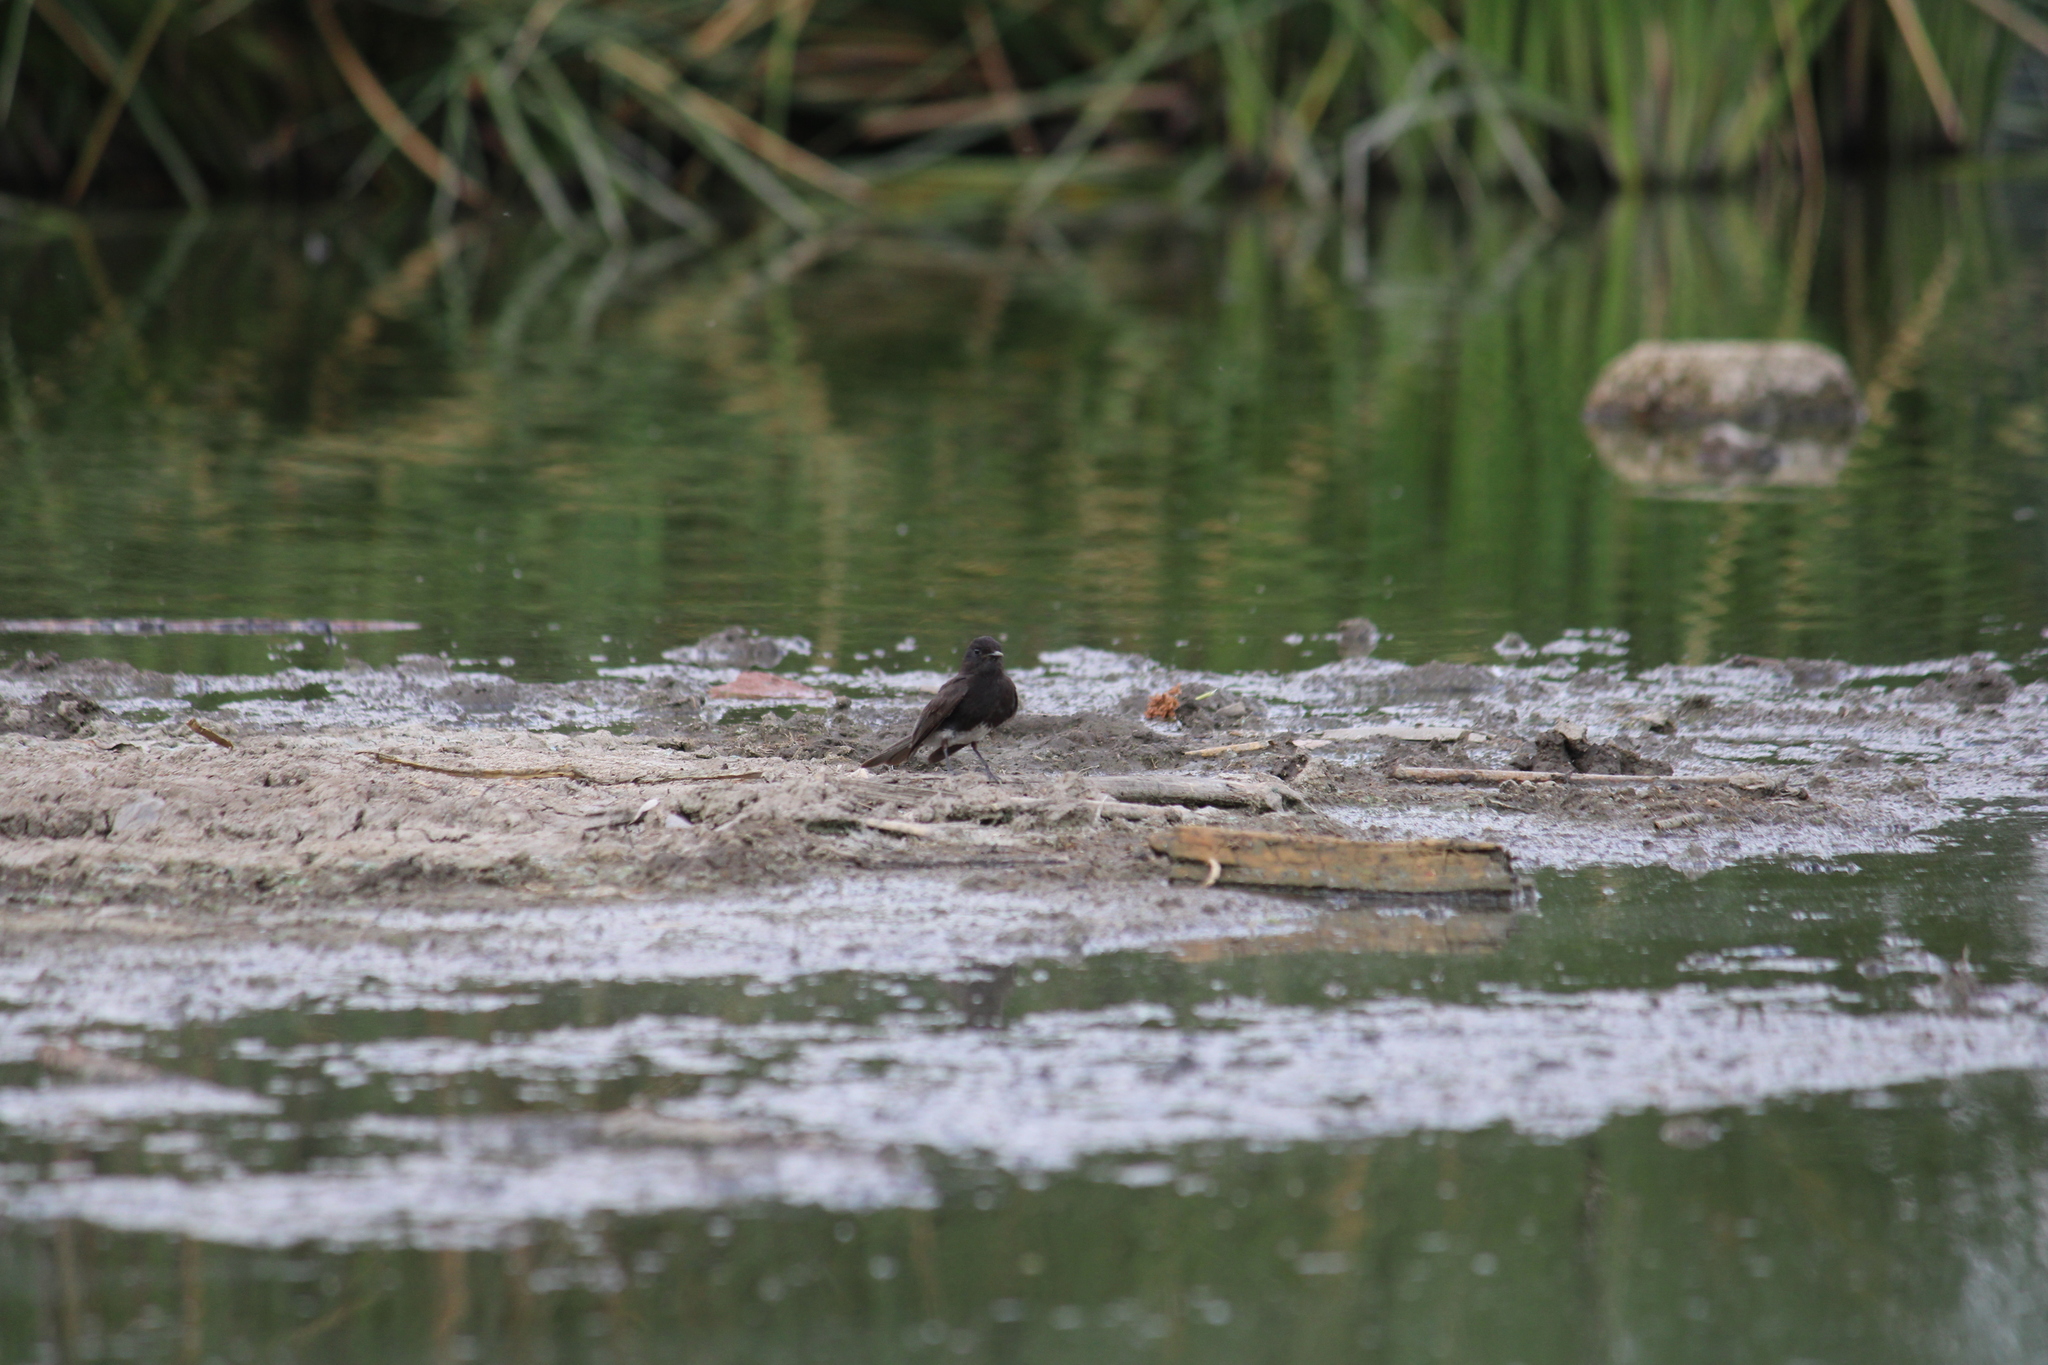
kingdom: Animalia
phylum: Chordata
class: Aves
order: Passeriformes
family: Tyrannidae
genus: Sayornis
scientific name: Sayornis nigricans
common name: Black phoebe
